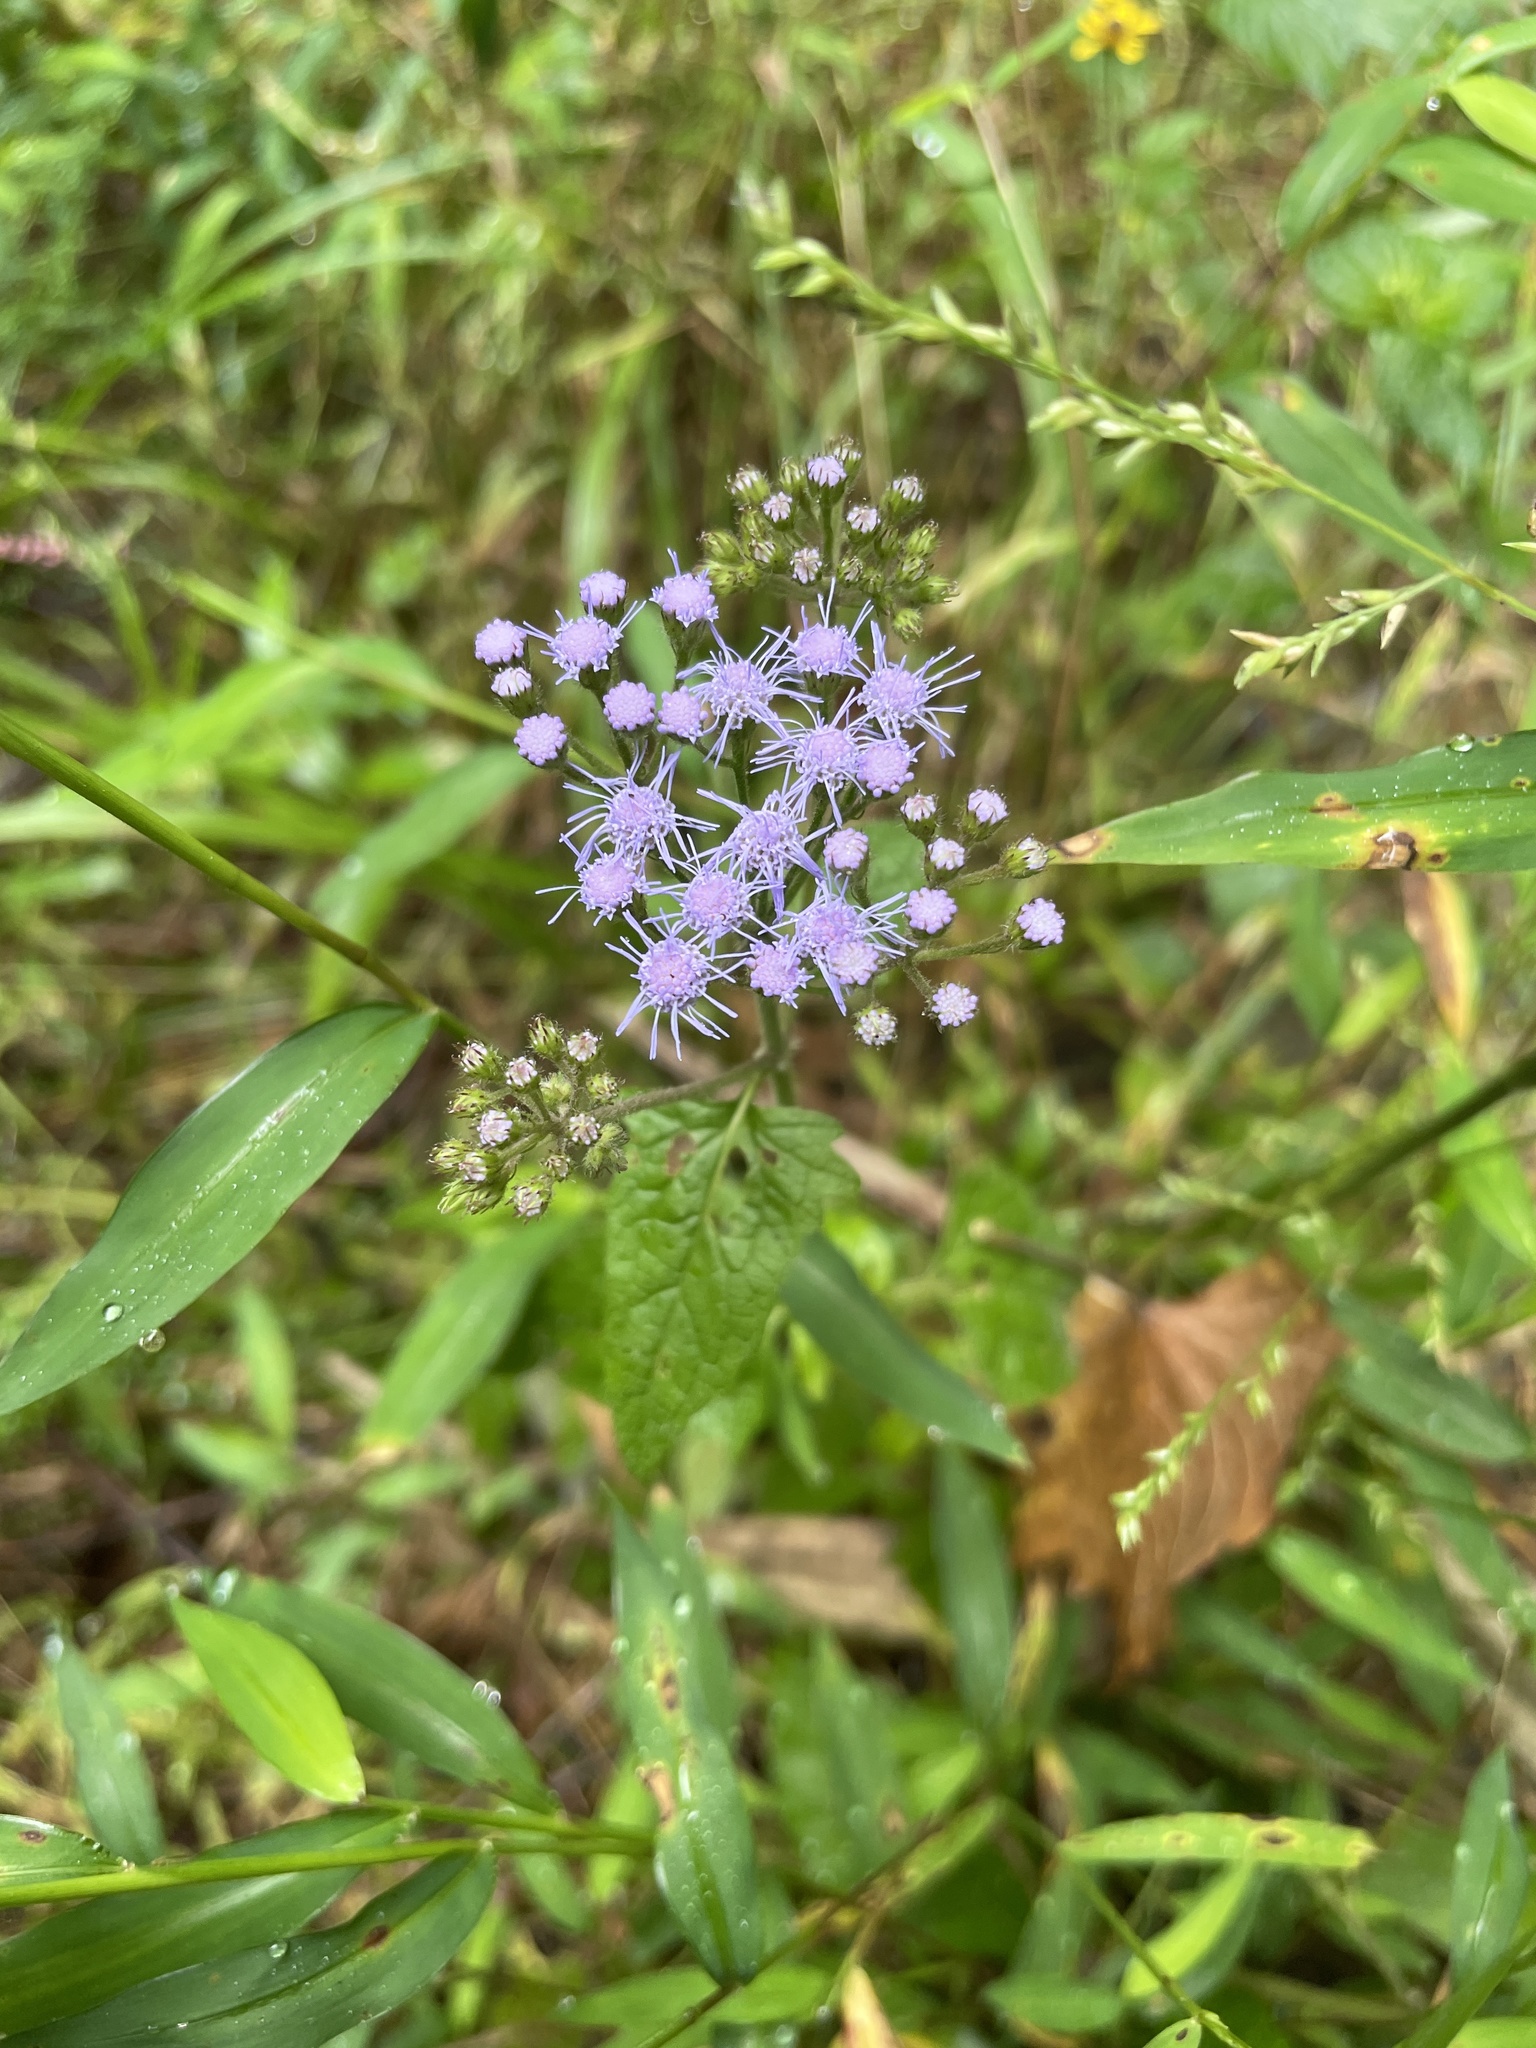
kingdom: Plantae
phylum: Tracheophyta
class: Magnoliopsida
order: Asterales
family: Asteraceae
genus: Conoclinium
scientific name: Conoclinium coelestinum
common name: Blue mistflower
